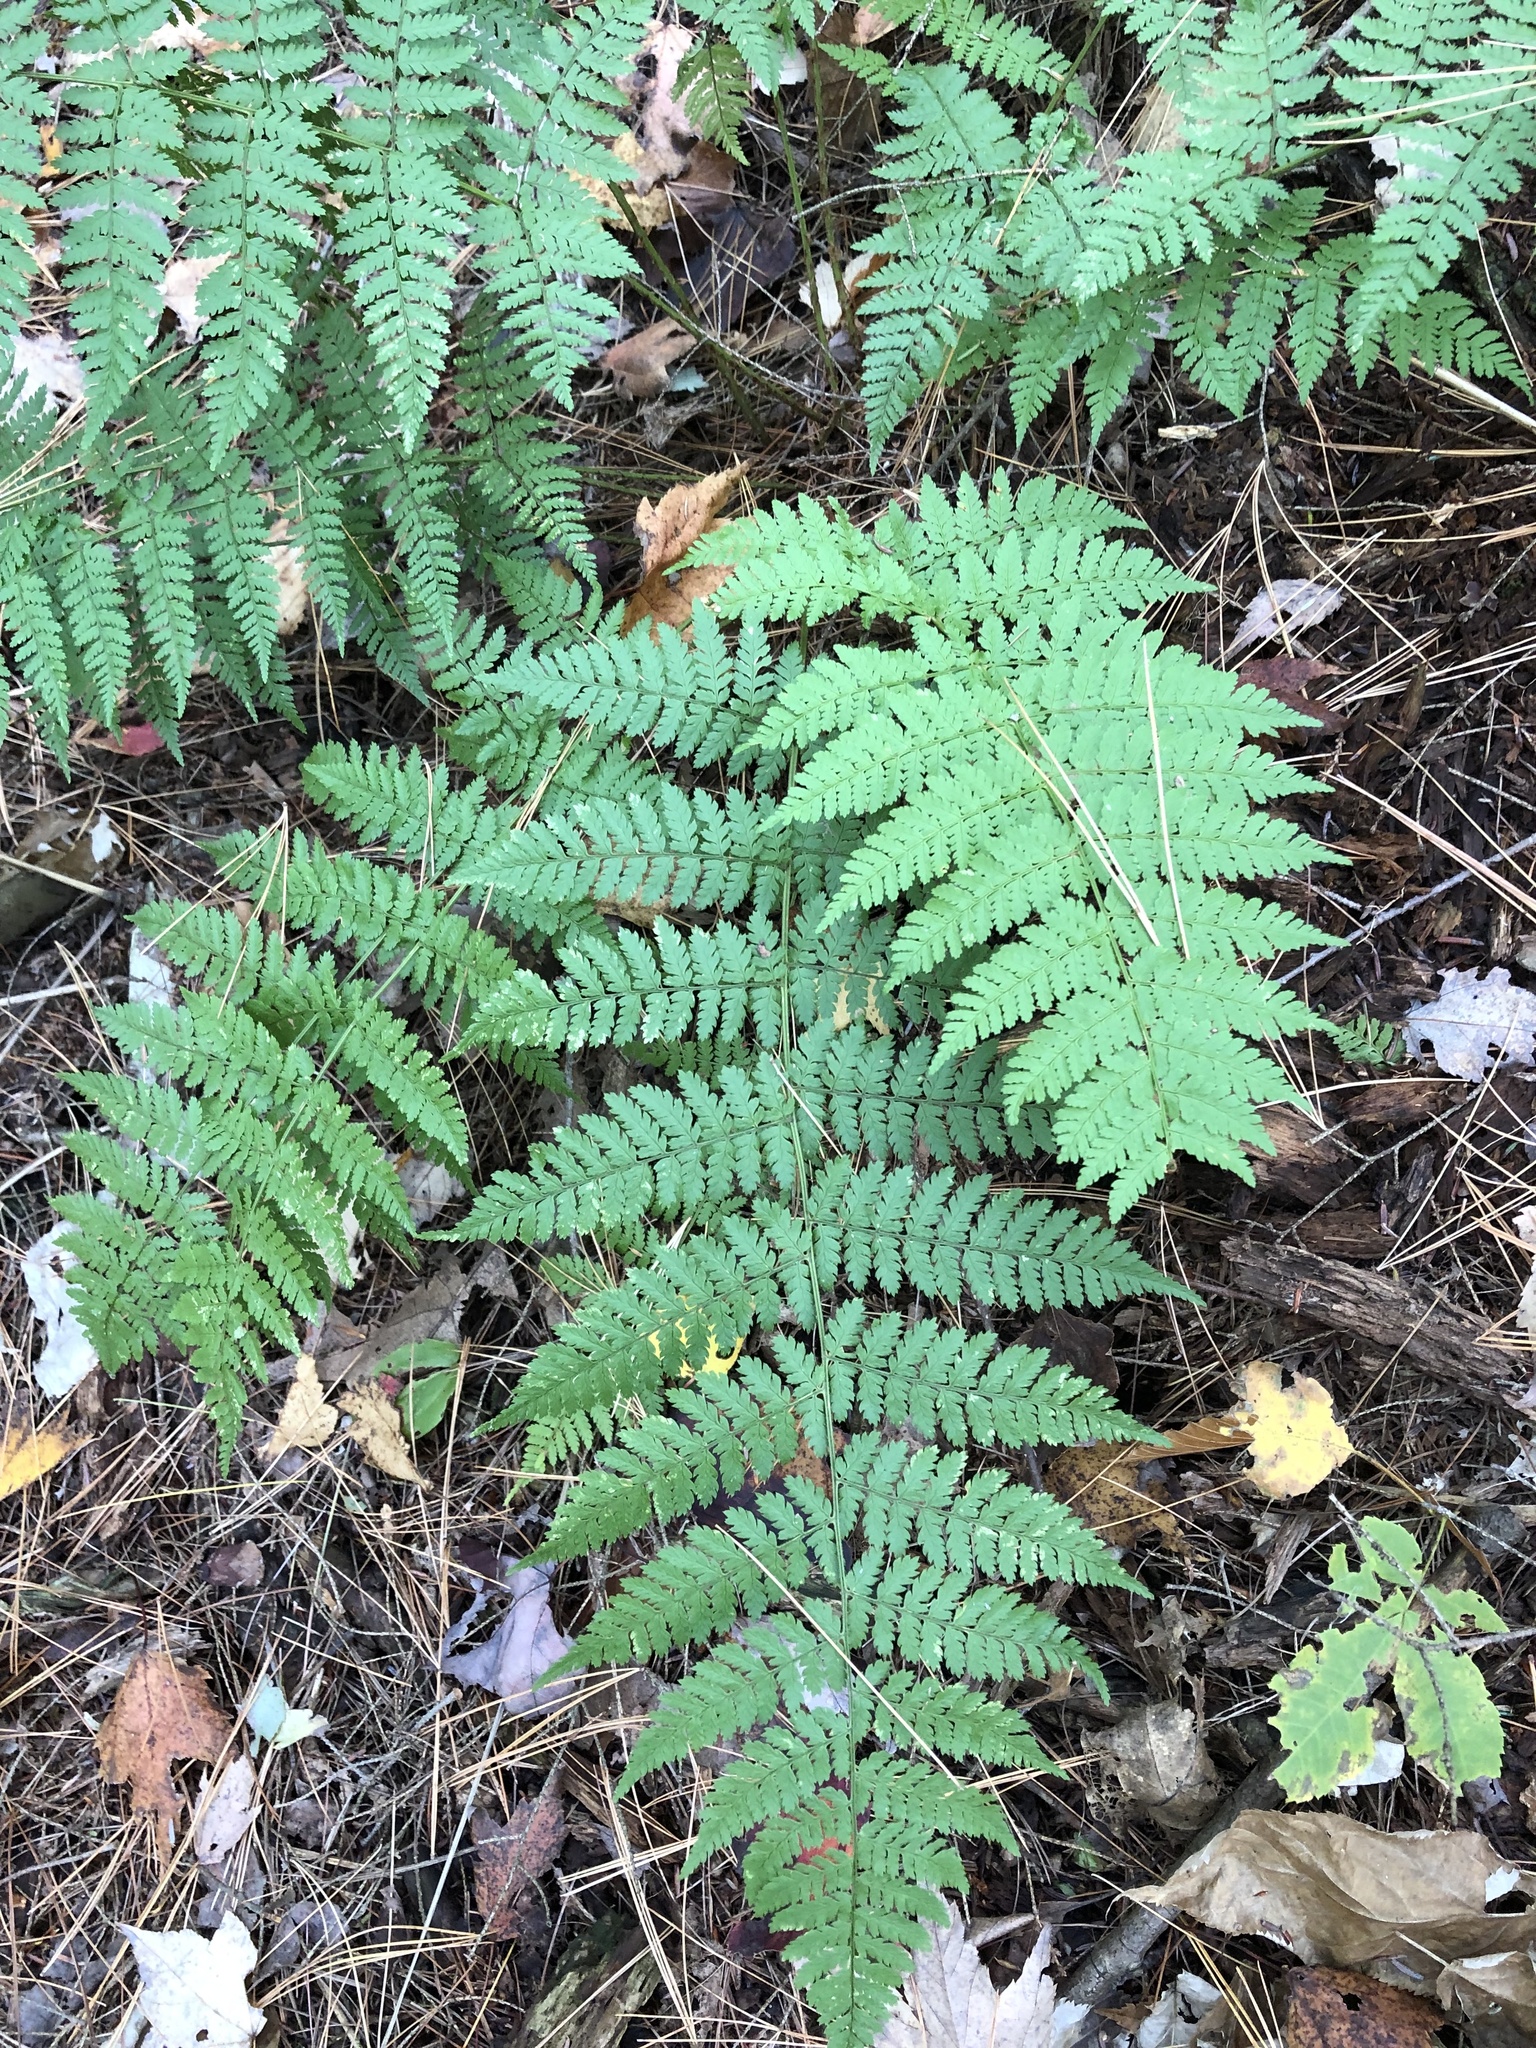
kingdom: Plantae
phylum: Tracheophyta
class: Polypodiopsida
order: Polypodiales
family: Dryopteridaceae
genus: Dryopteris
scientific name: Dryopteris intermedia
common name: Evergreen wood fern
